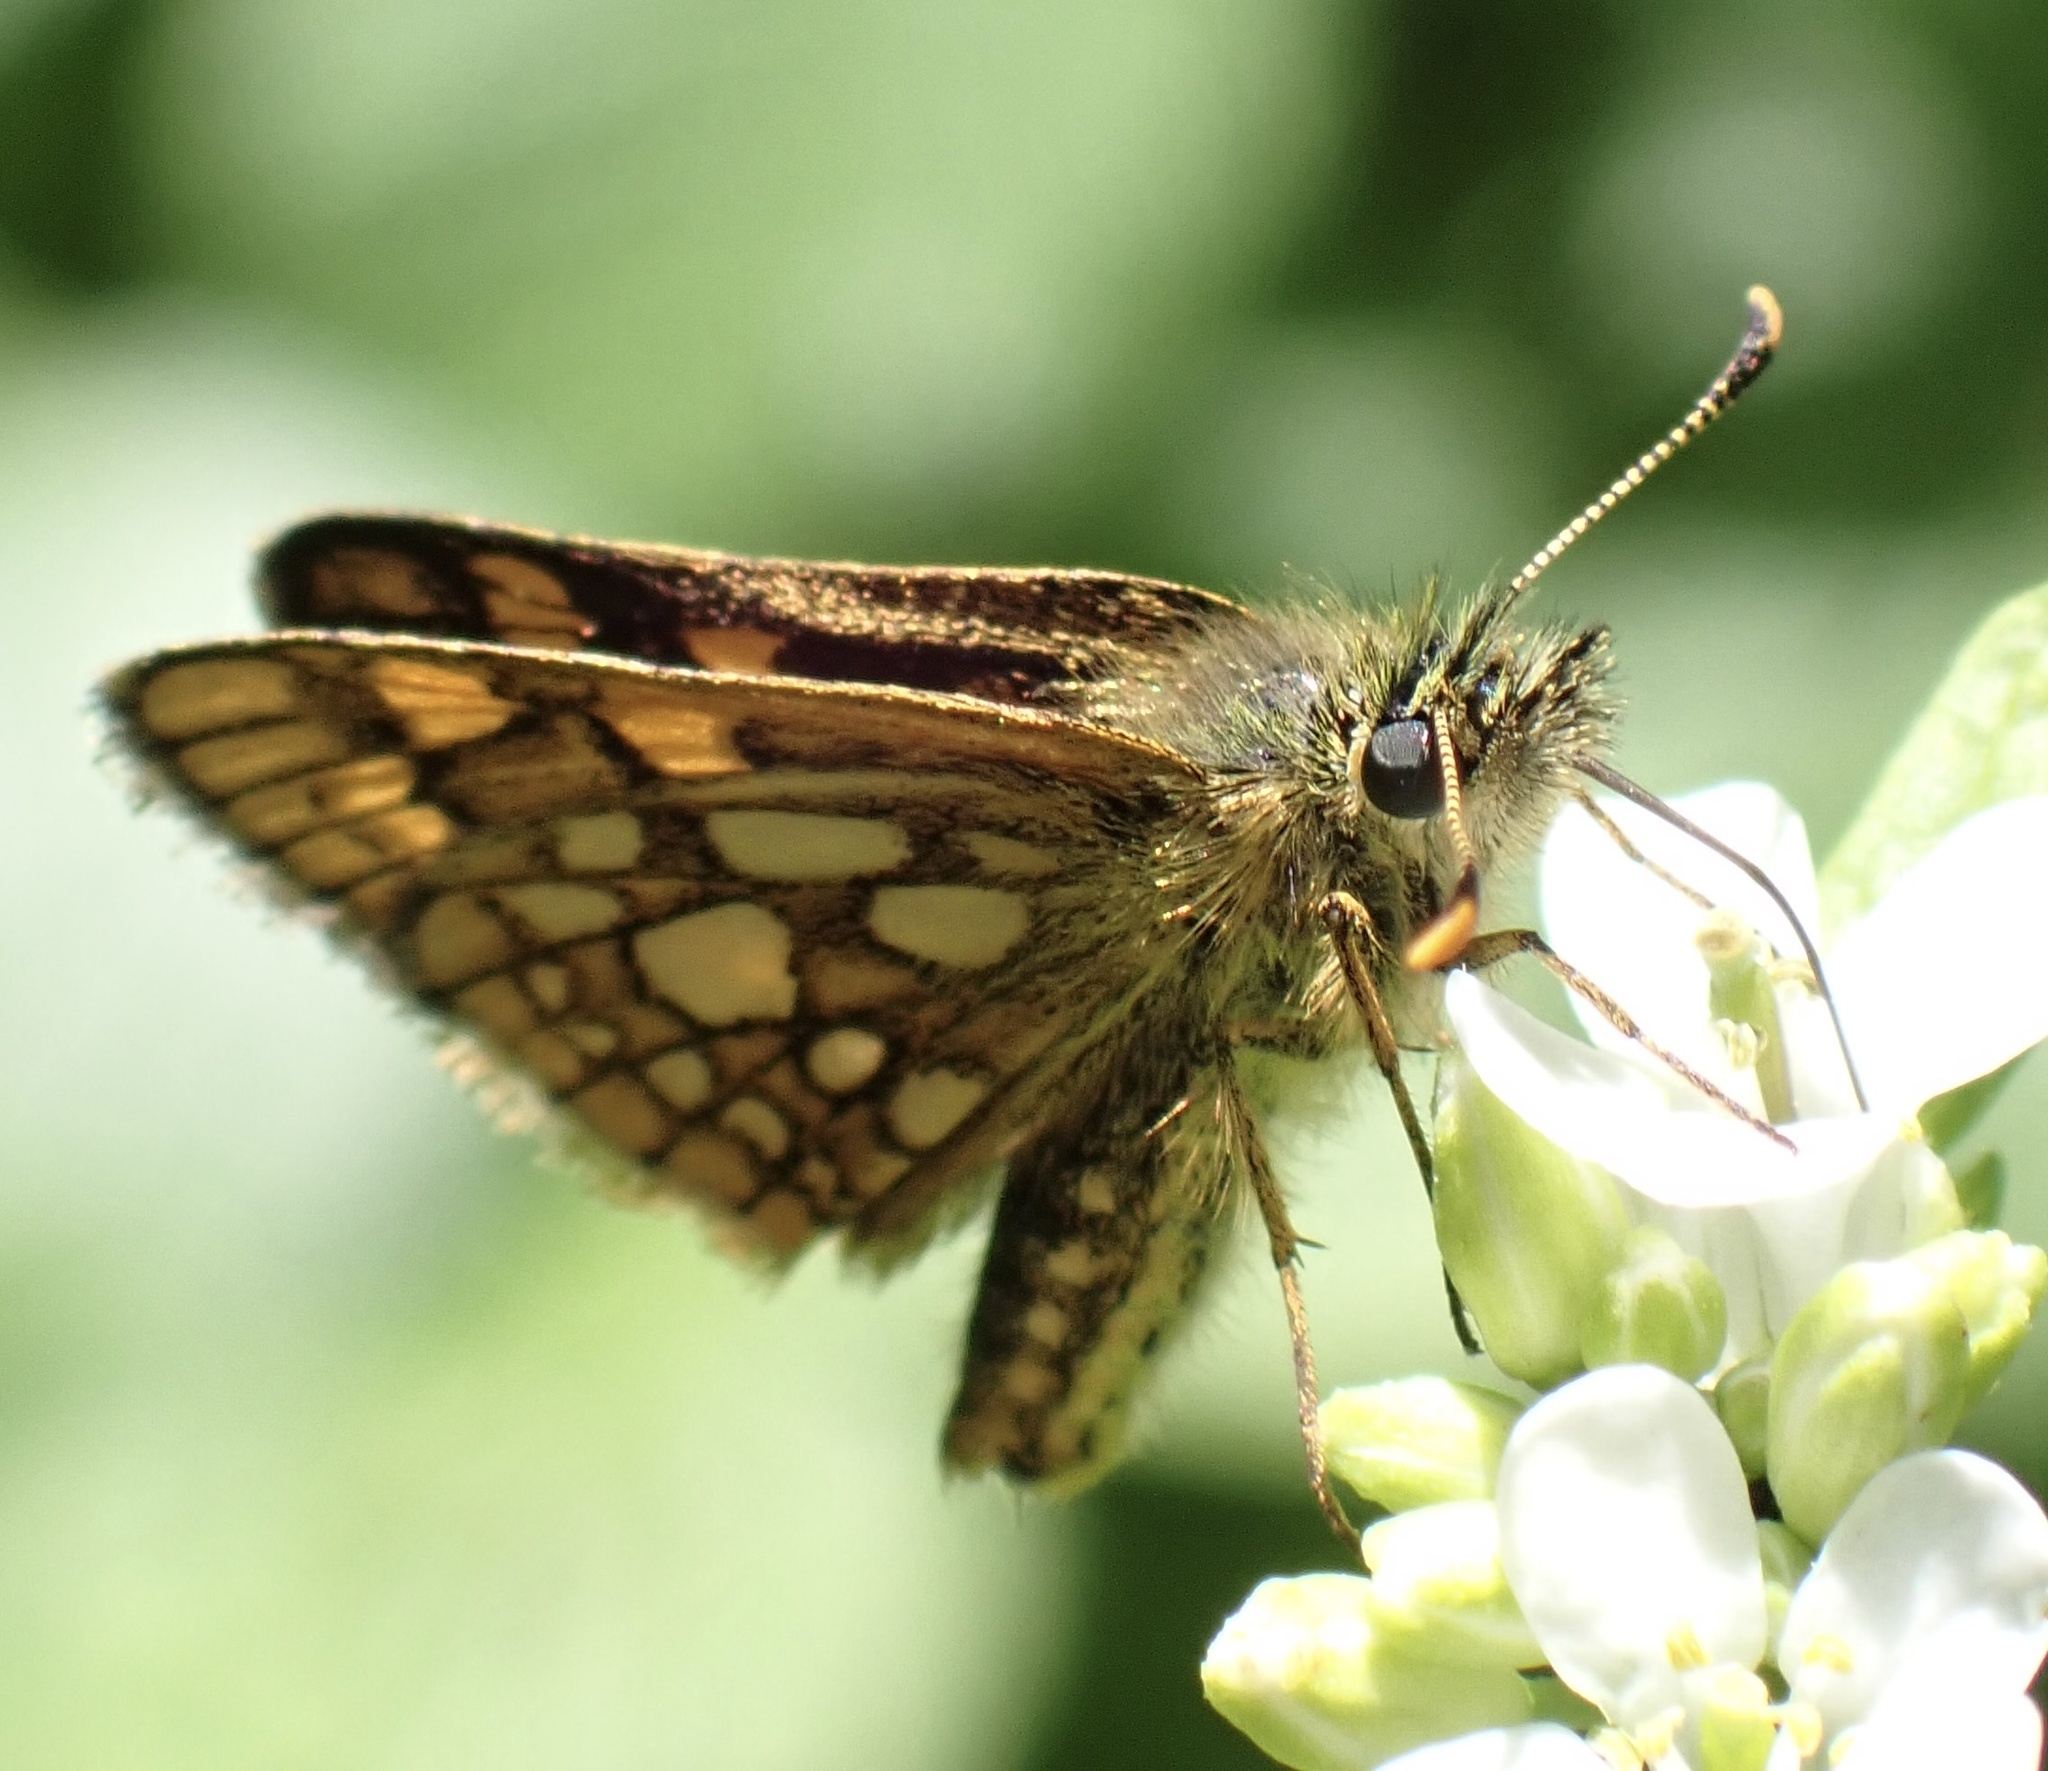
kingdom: Animalia
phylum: Arthropoda
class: Insecta
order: Lepidoptera
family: Hesperiidae
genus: Carterocephalus
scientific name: Carterocephalus palaemon
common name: Chequered skipper
